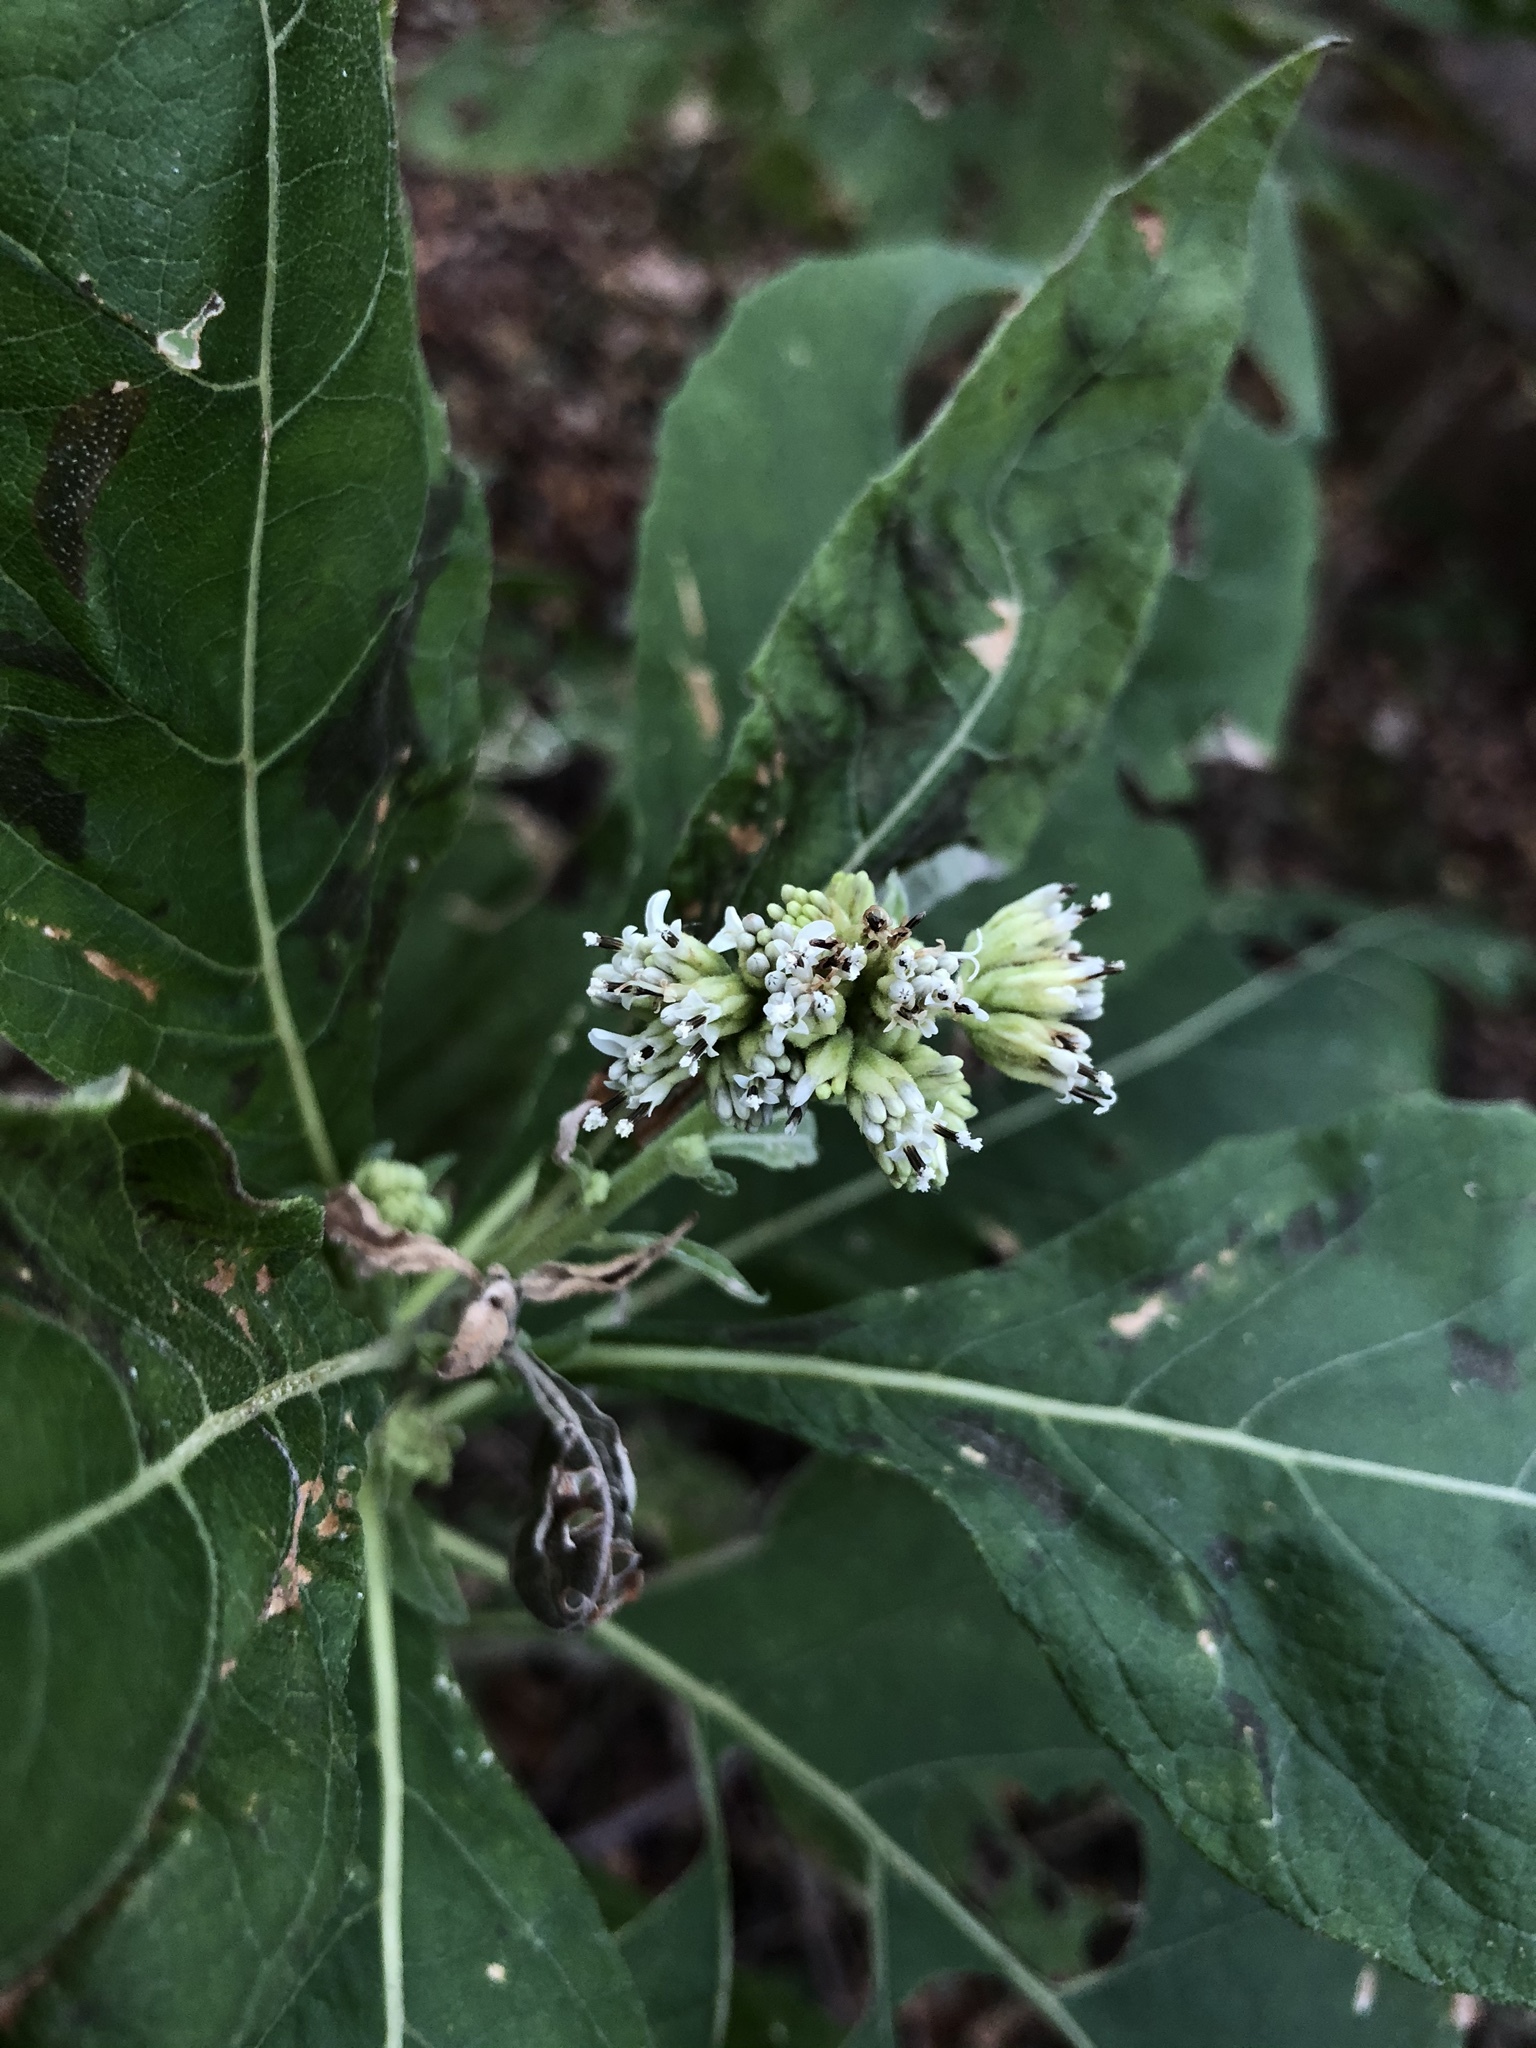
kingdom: Plantae
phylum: Tracheophyta
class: Magnoliopsida
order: Asterales
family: Asteraceae
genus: Verbesina
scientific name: Verbesina virginica
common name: Frostweed
